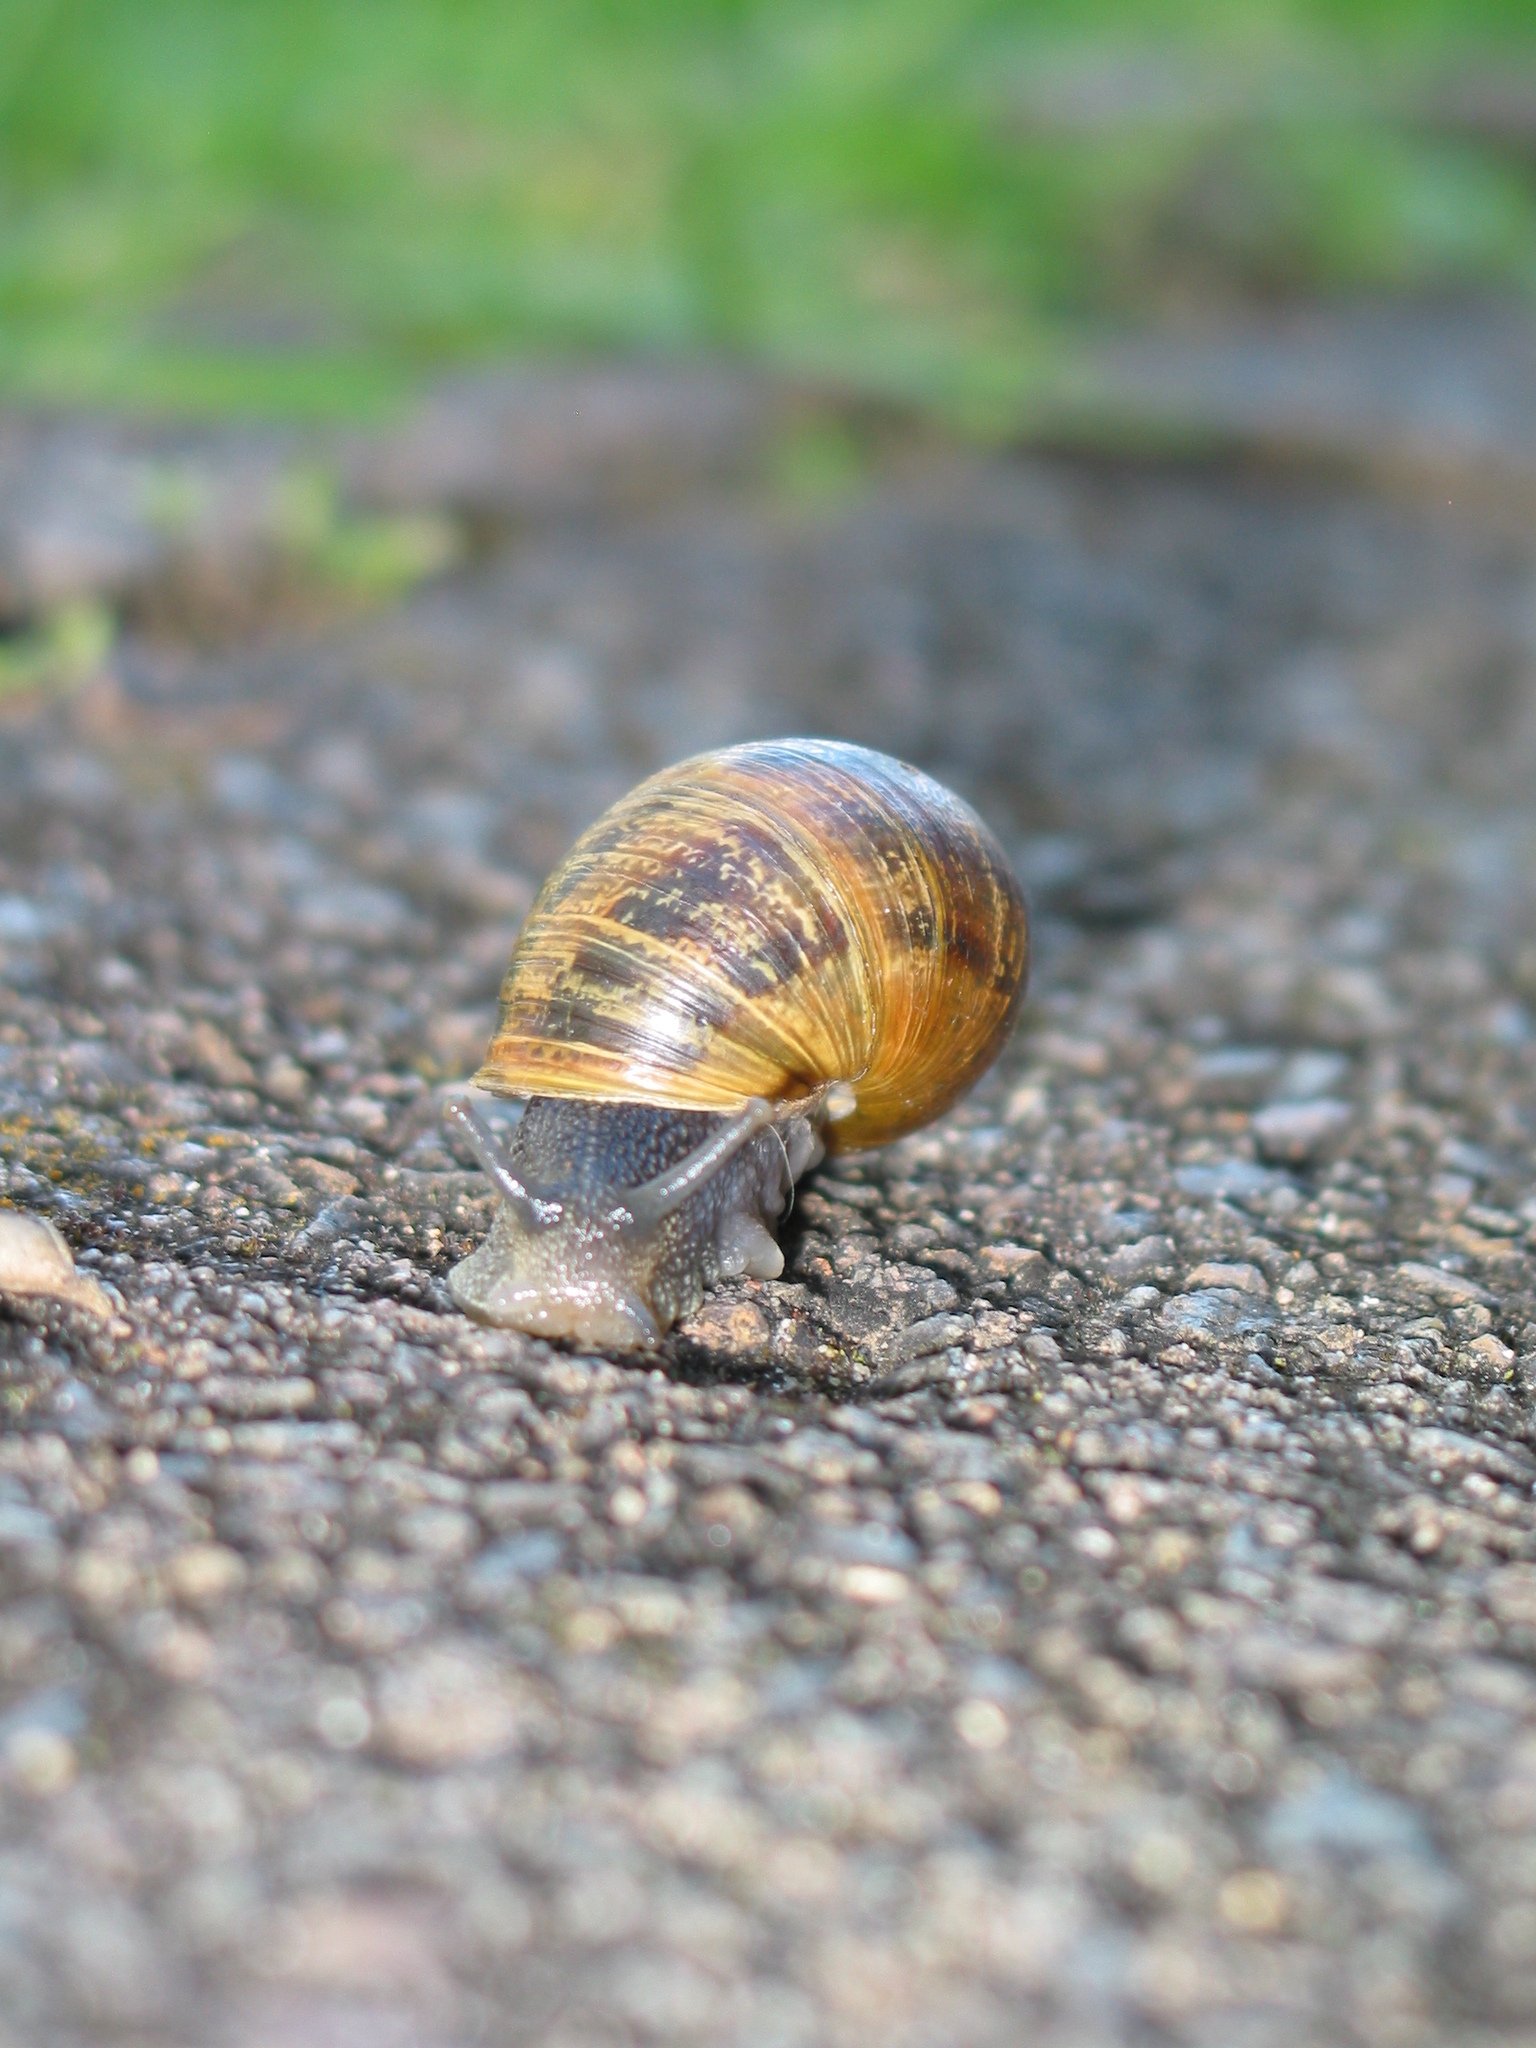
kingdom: Animalia
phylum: Mollusca
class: Gastropoda
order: Stylommatophora
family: Helicidae
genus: Cornu
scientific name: Cornu aspersum
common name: Brown garden snail
